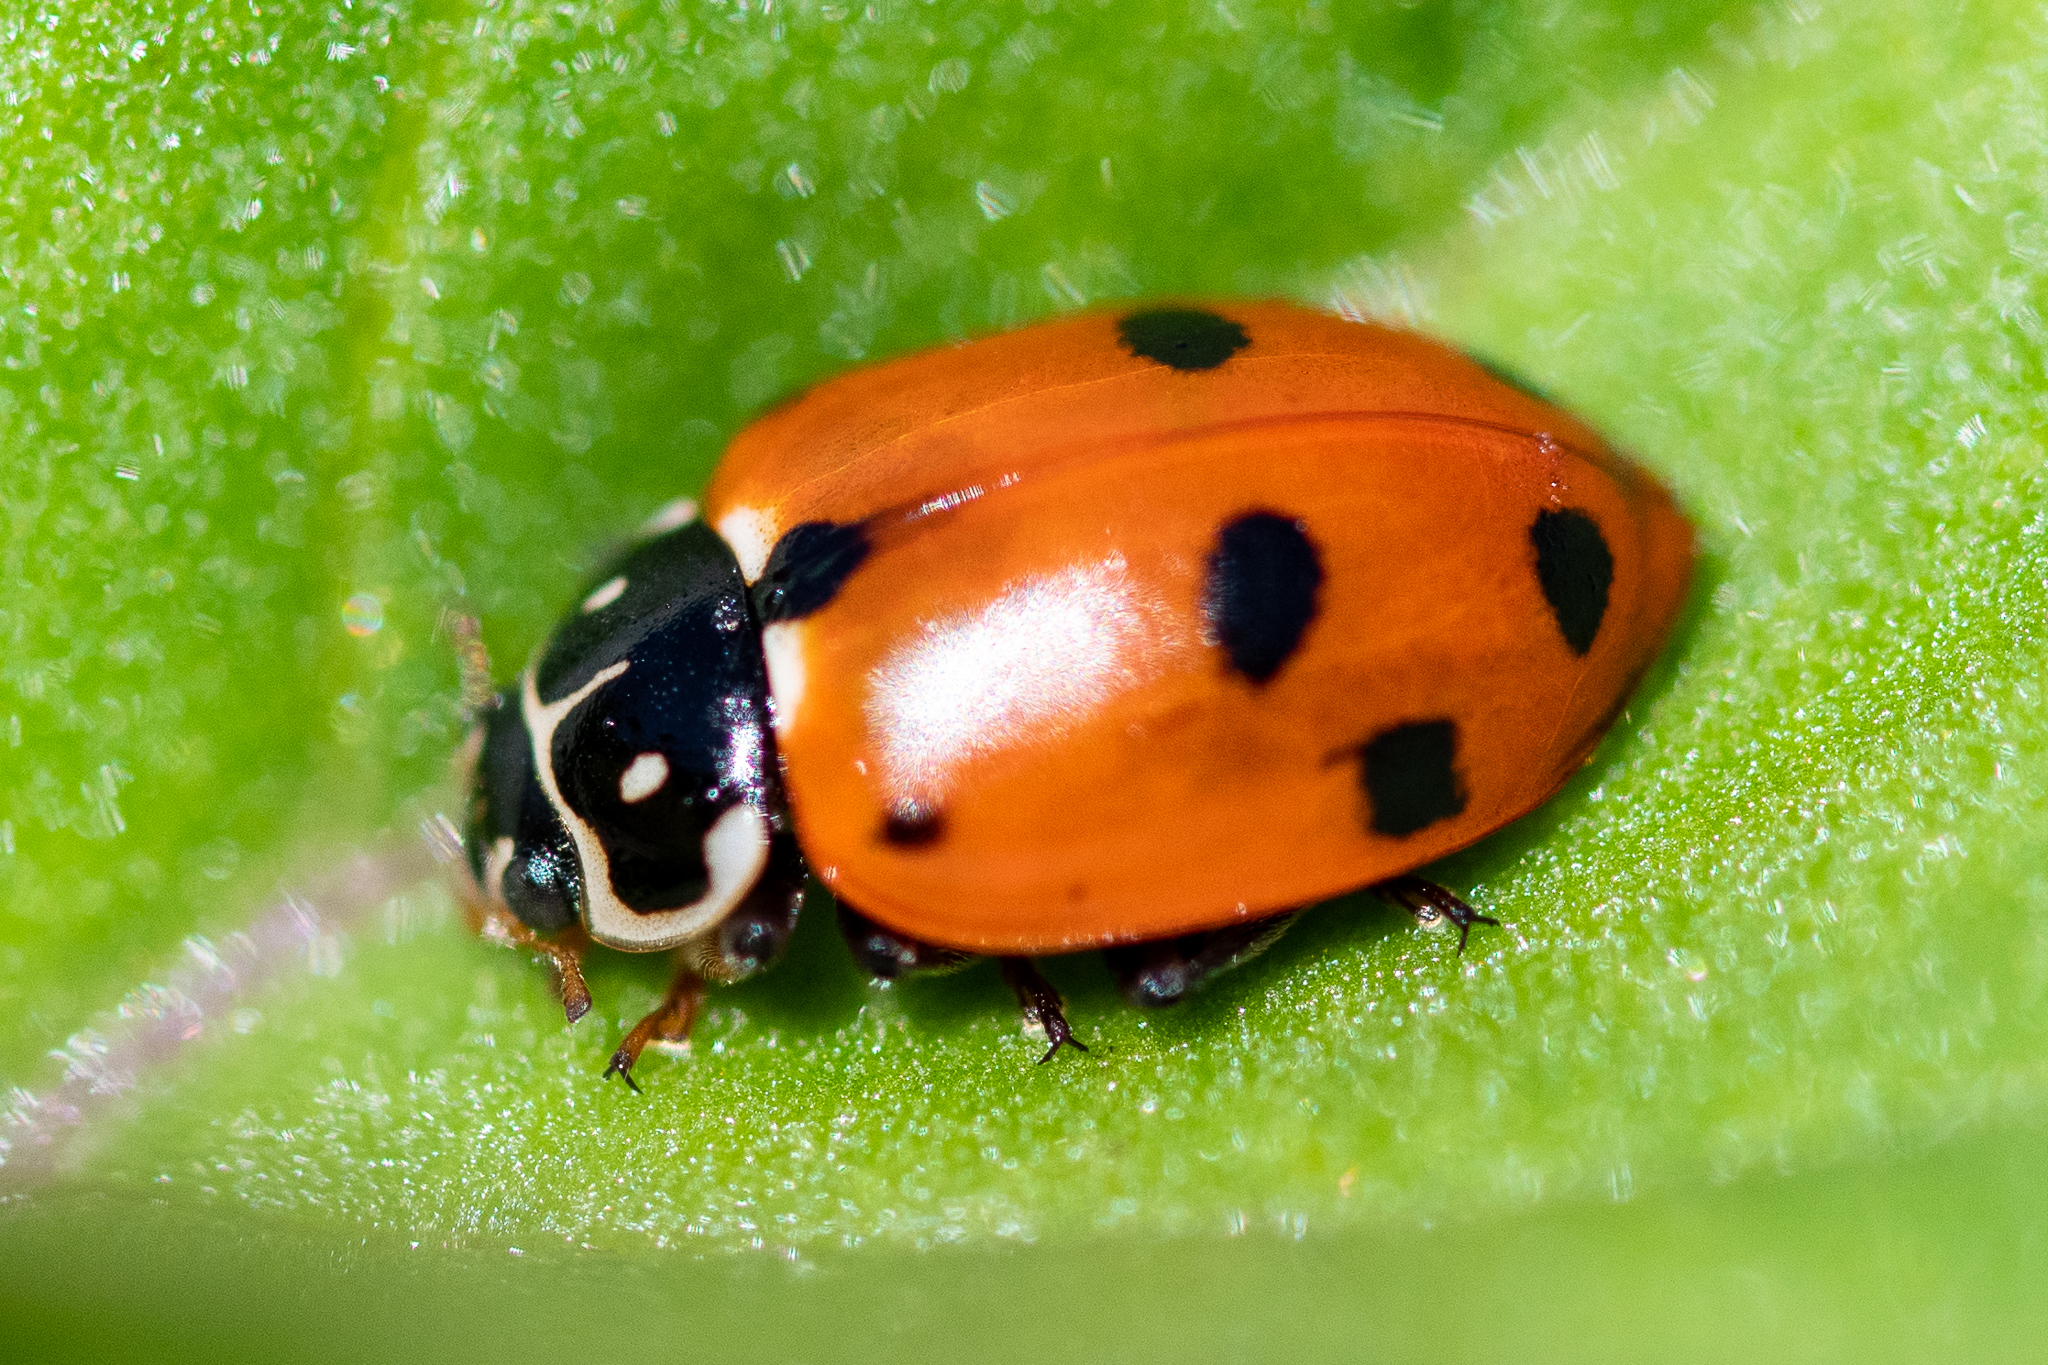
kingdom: Animalia
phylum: Arthropoda
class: Insecta
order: Coleoptera
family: Coccinellidae
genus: Hippodamia
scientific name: Hippodamia variegata
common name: Ladybird beetle
